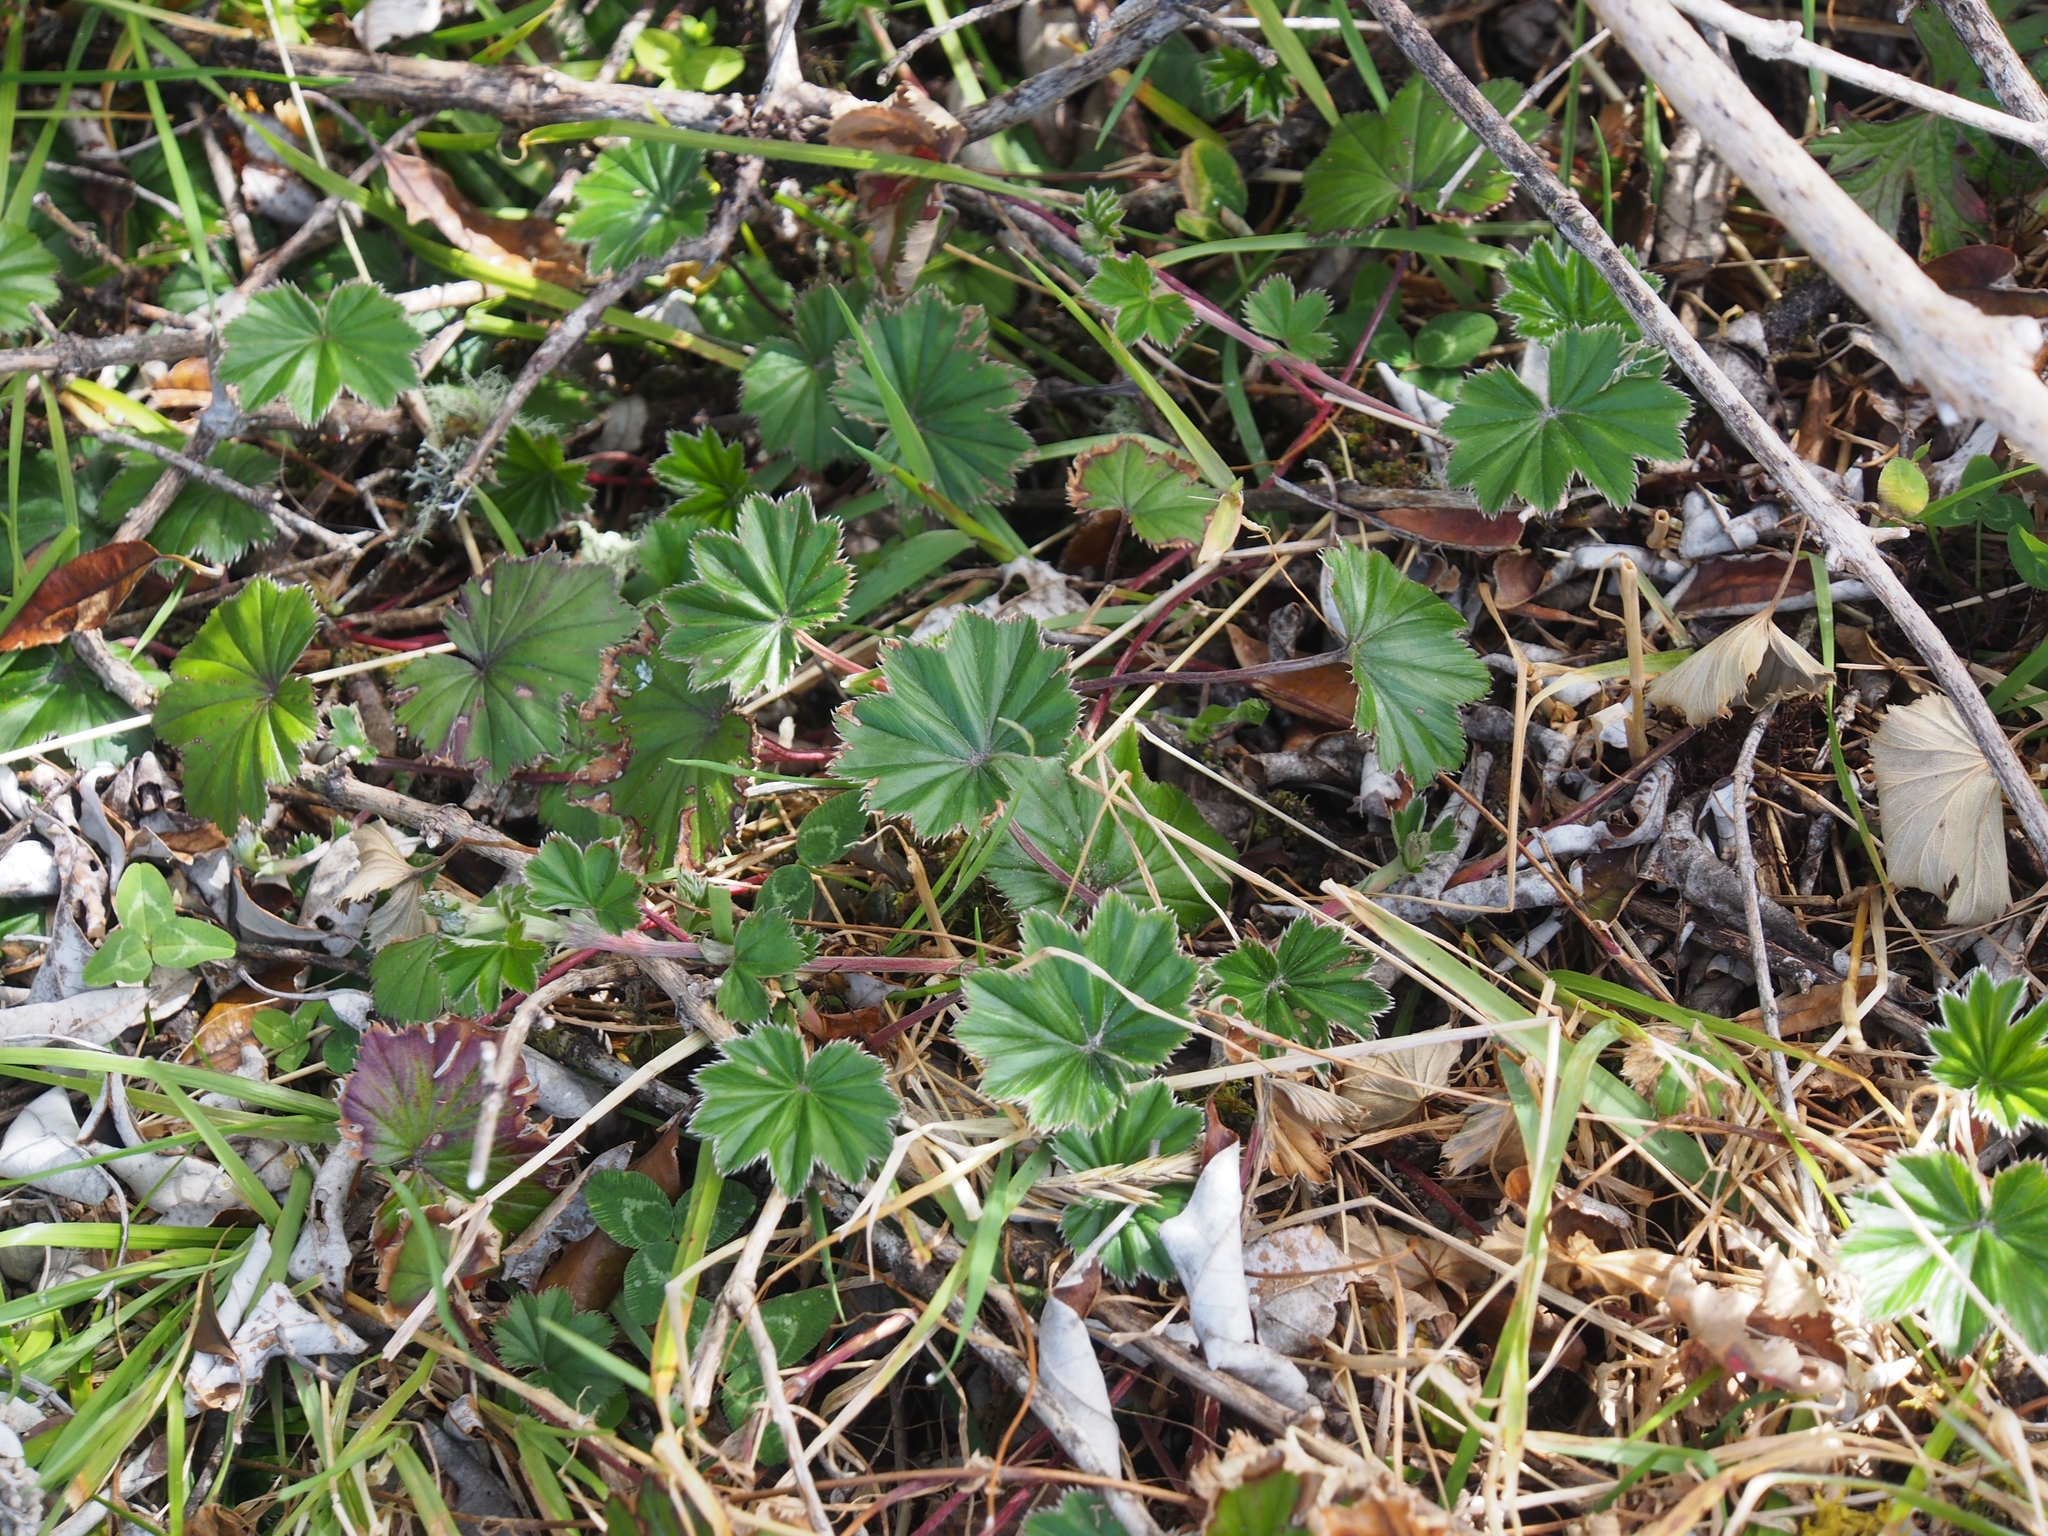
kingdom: Plantae
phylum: Tracheophyta
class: Magnoliopsida
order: Rosales
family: Rosaceae
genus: Lachemilla
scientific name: Lachemilla pectinata
